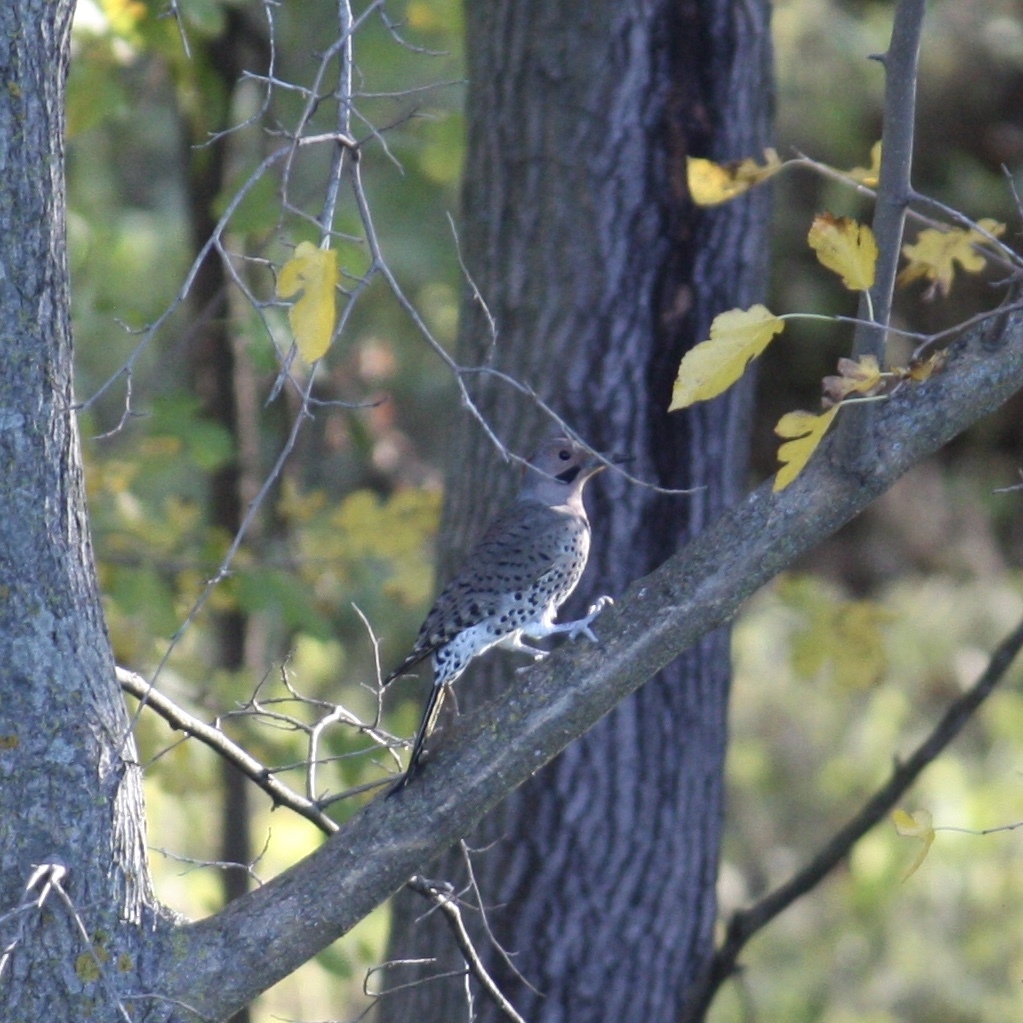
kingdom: Animalia
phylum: Chordata
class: Aves
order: Piciformes
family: Picidae
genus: Colaptes
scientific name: Colaptes auratus
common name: Northern flicker
